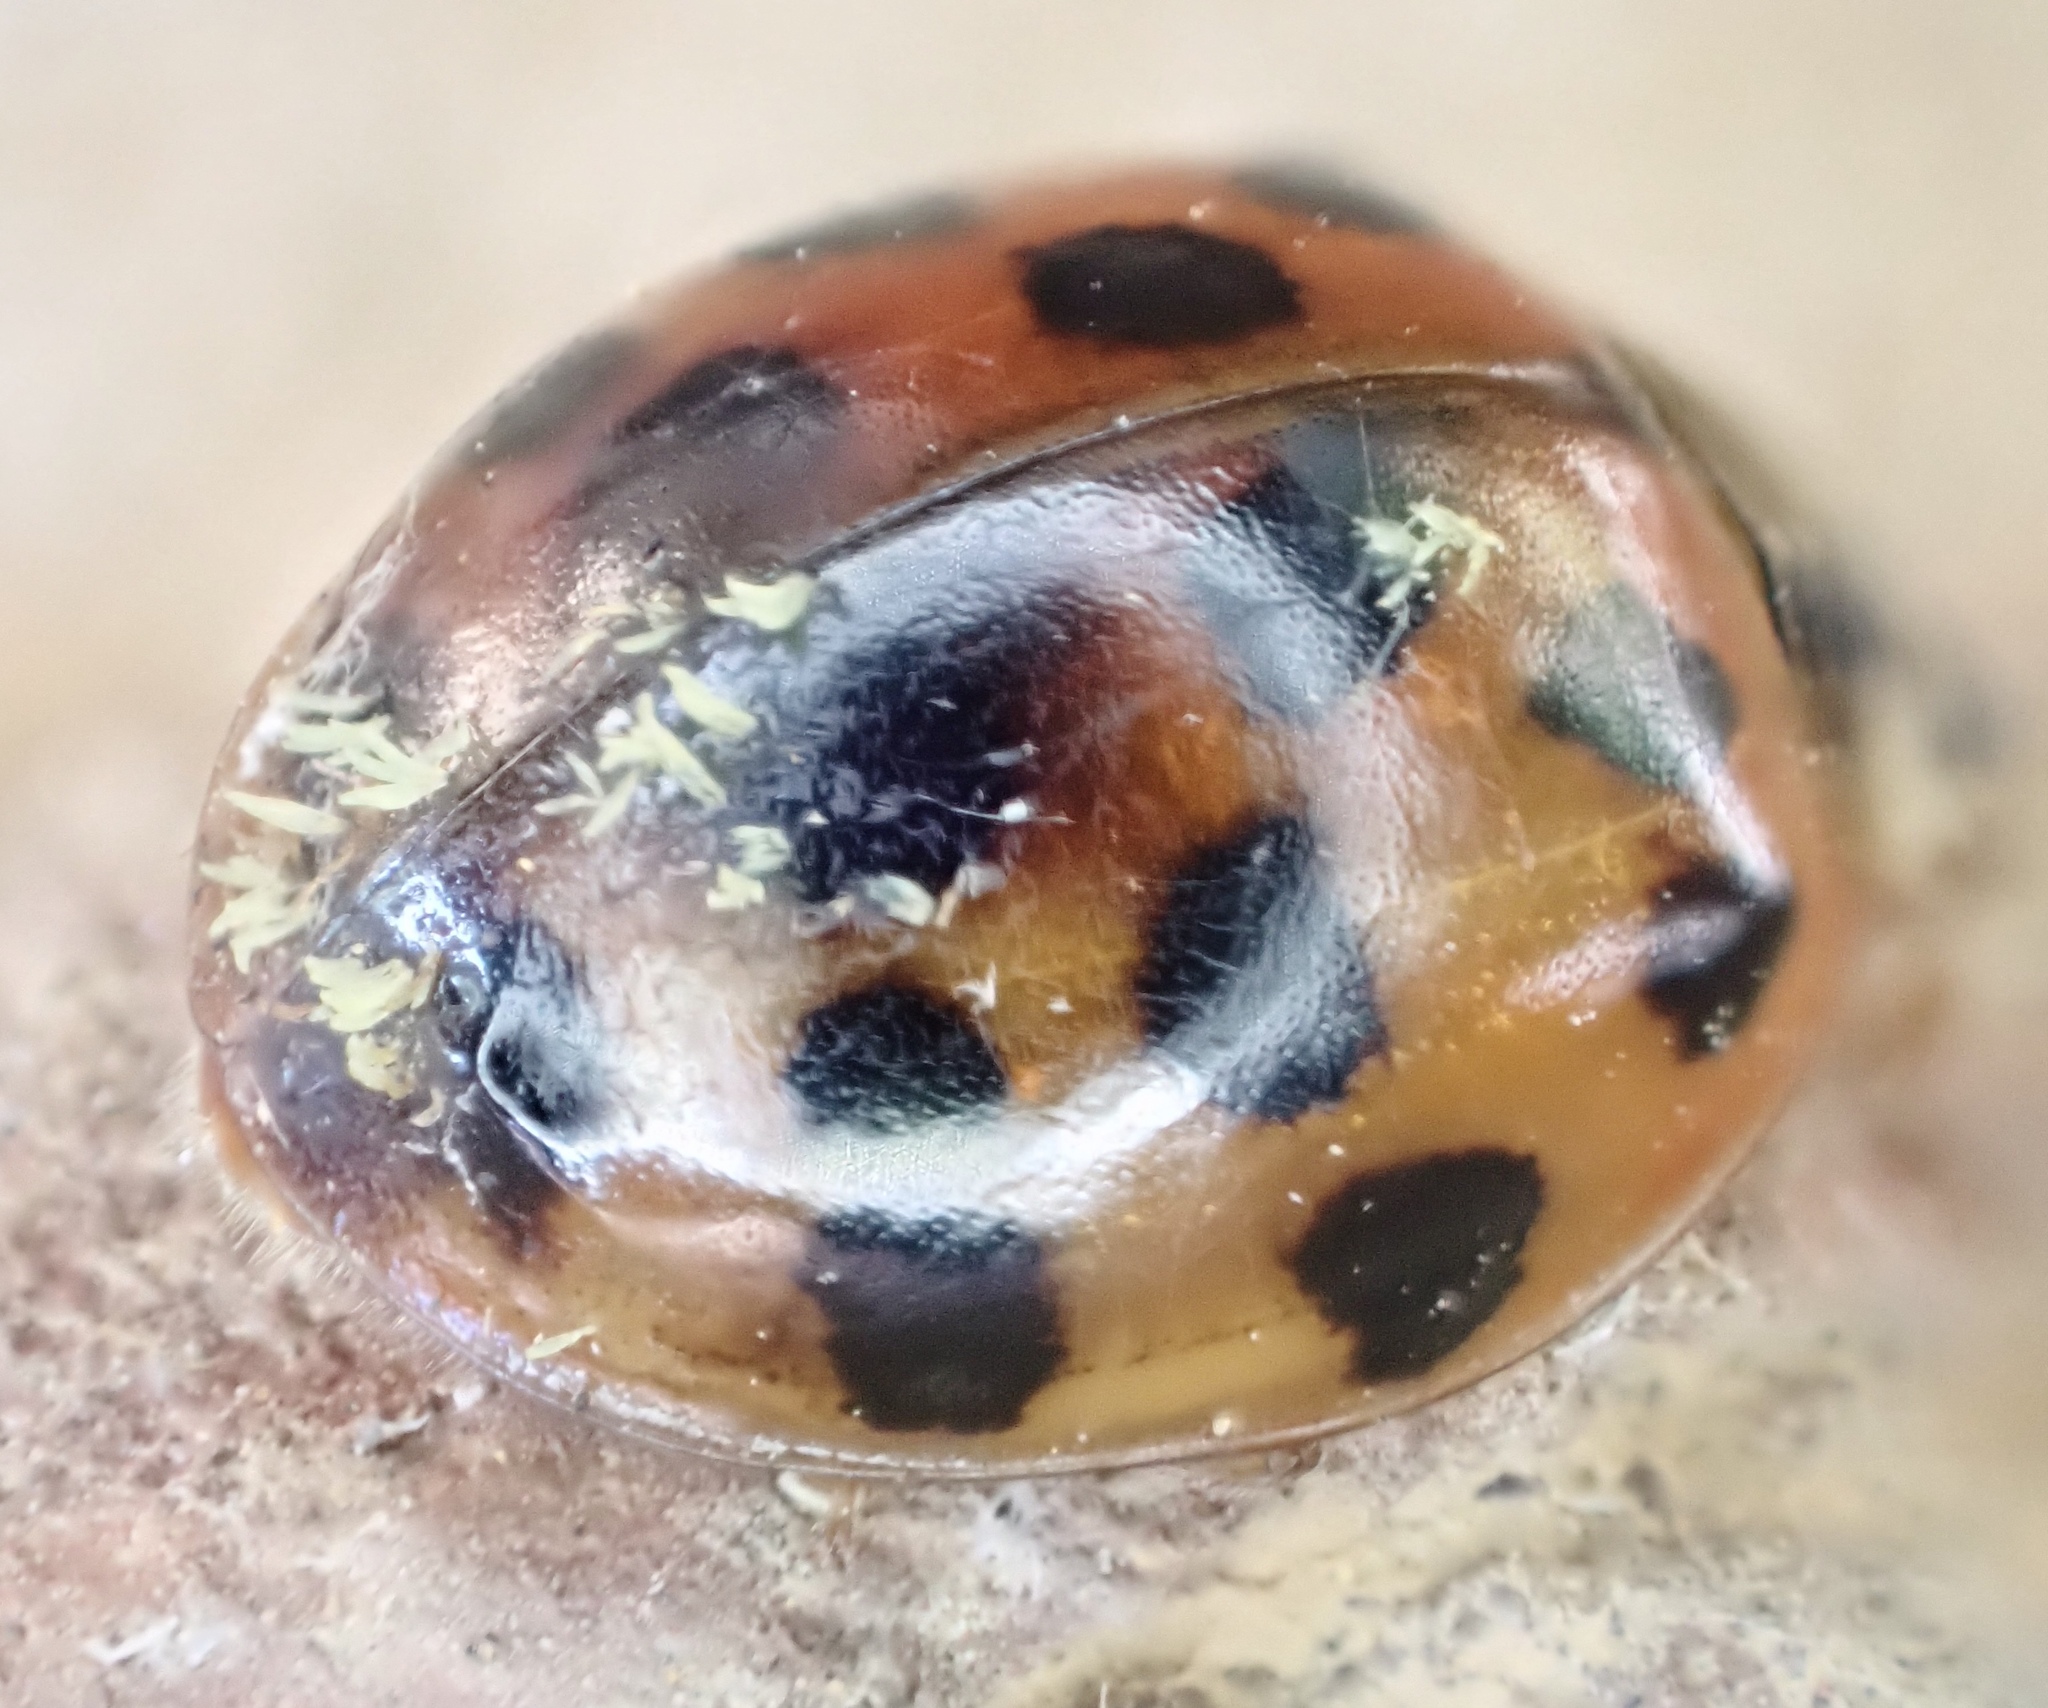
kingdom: Fungi
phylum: Ascomycota
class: Laboulbeniomycetes
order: Laboulbeniales
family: Laboulbeniaceae
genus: Hesperomyces
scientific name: Hesperomyces harmoniae
